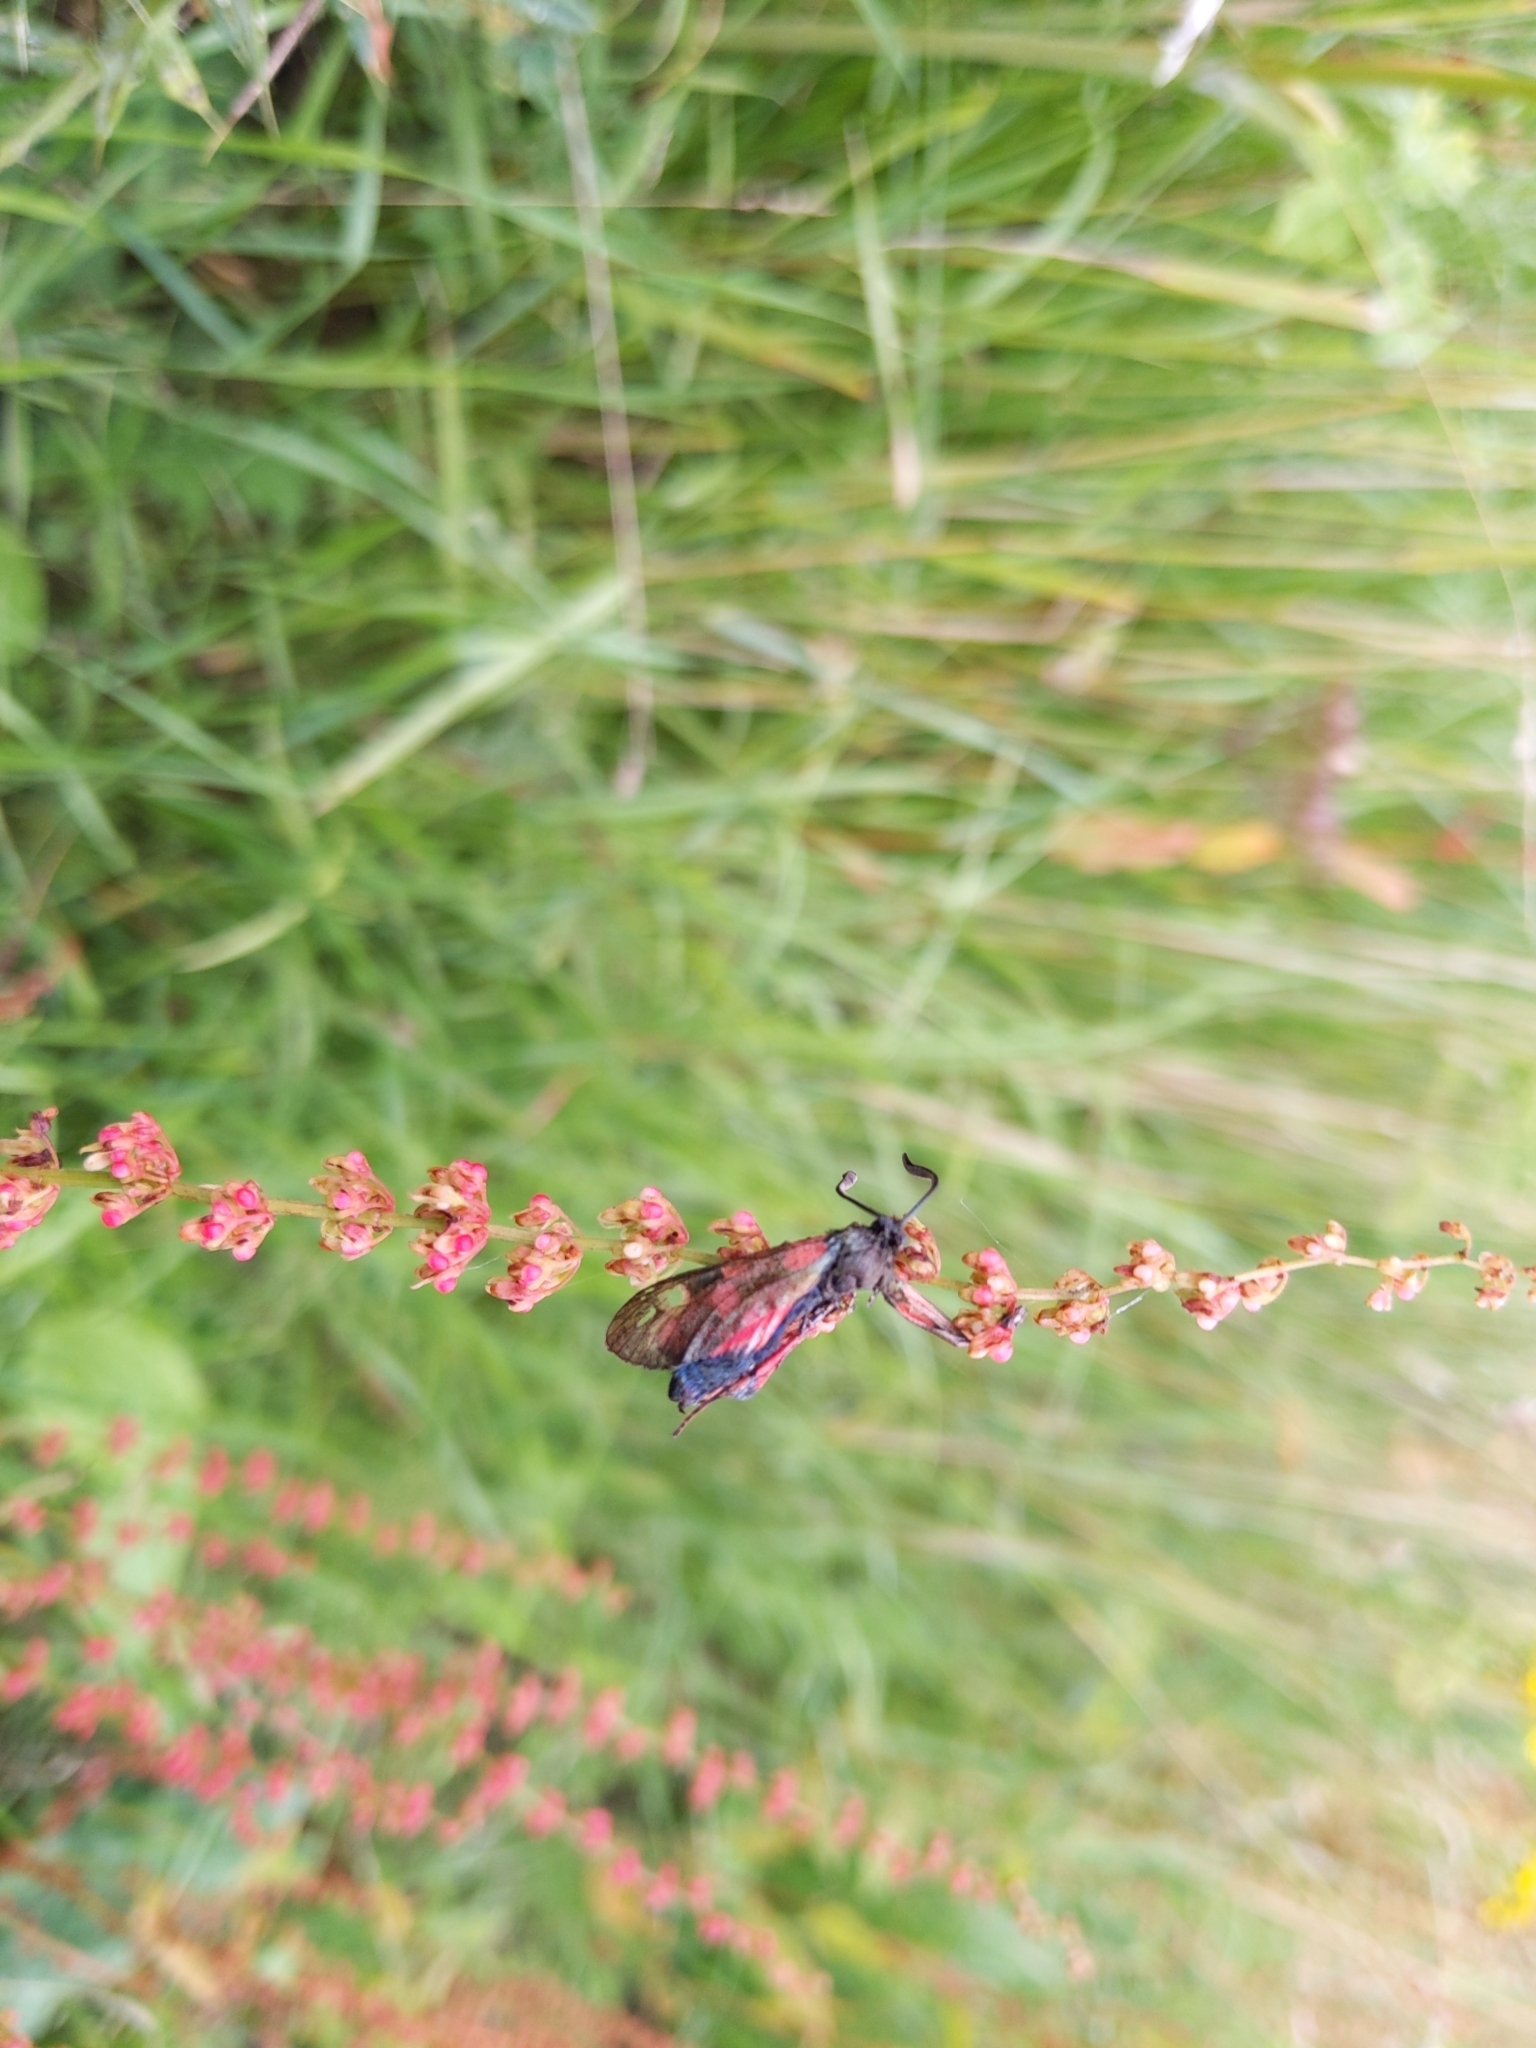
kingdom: Animalia
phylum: Arthropoda
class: Insecta
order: Lepidoptera
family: Zygaenidae
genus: Zygaena
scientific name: Zygaena
